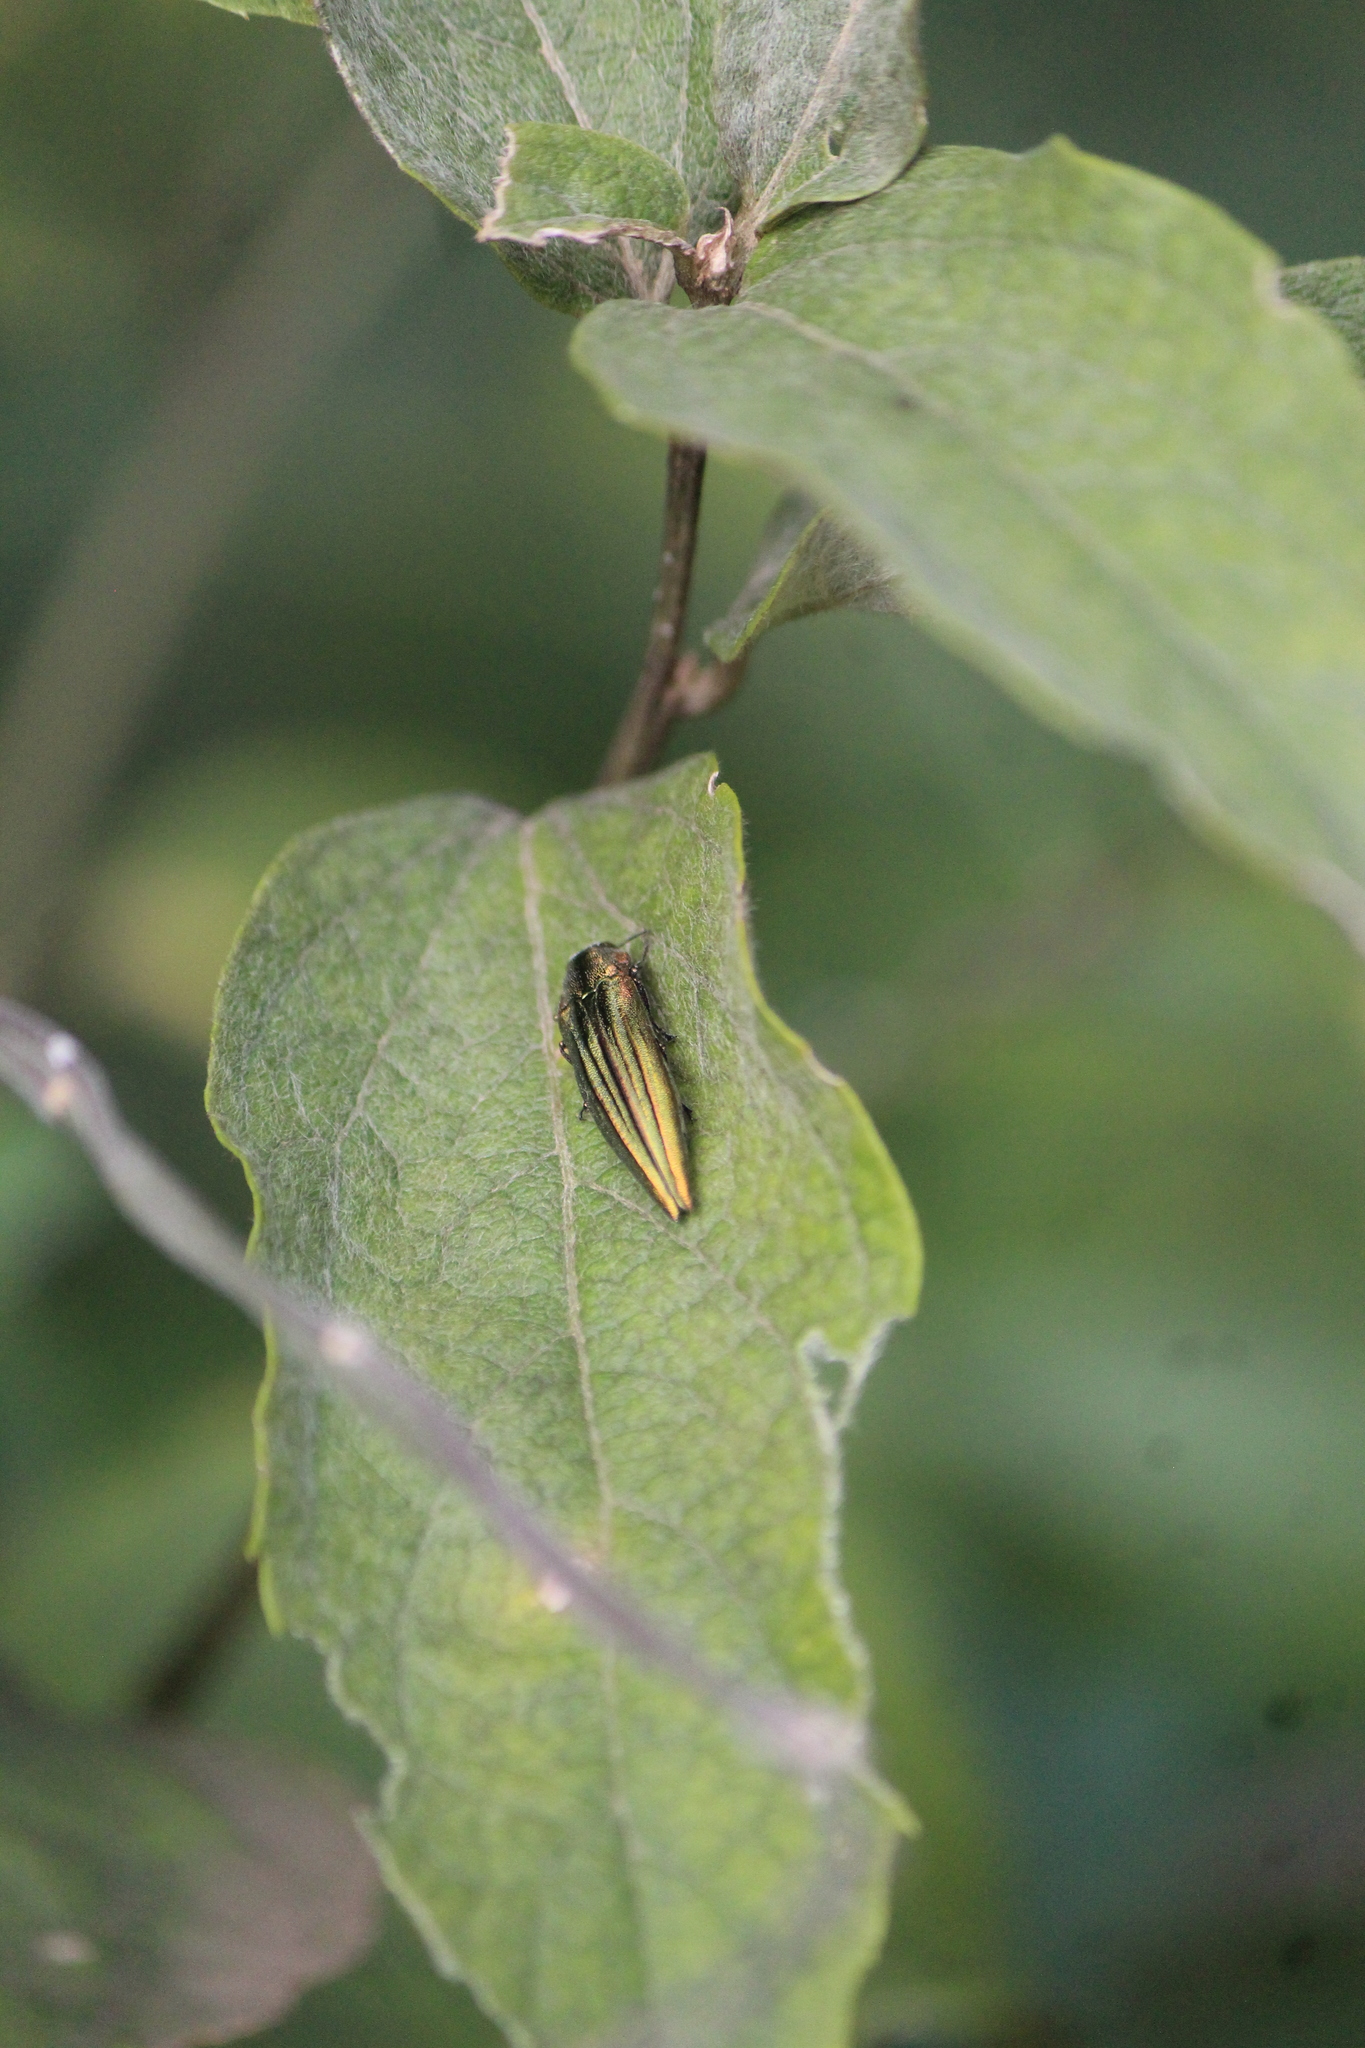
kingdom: Animalia
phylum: Arthropoda
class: Insecta
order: Coleoptera
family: Buprestidae
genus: Agrilus
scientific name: Agrilus sulcatulus
